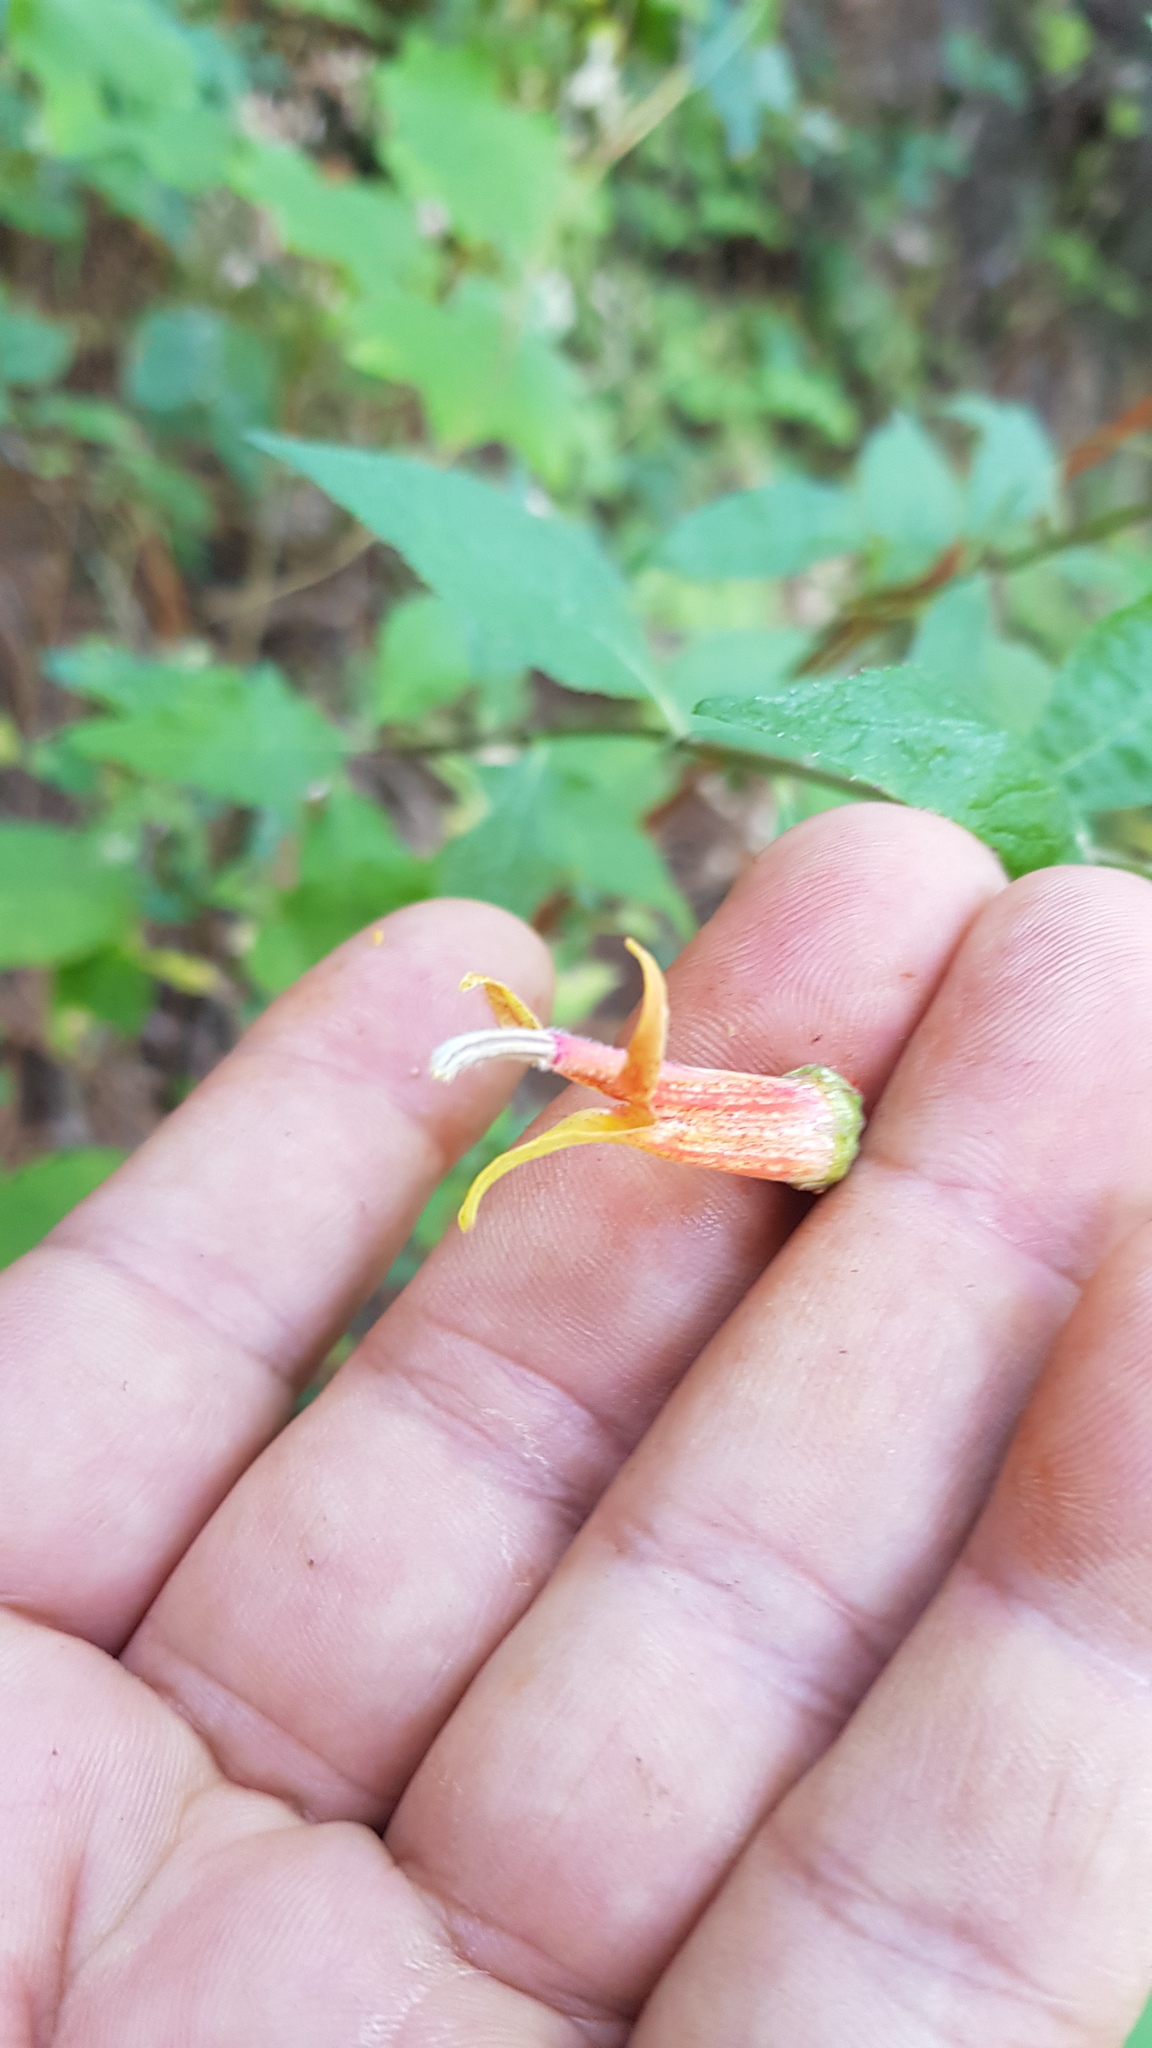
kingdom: Plantae
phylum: Tracheophyta
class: Magnoliopsida
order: Asterales
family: Campanulaceae
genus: Lobelia
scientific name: Lobelia laxiflora
